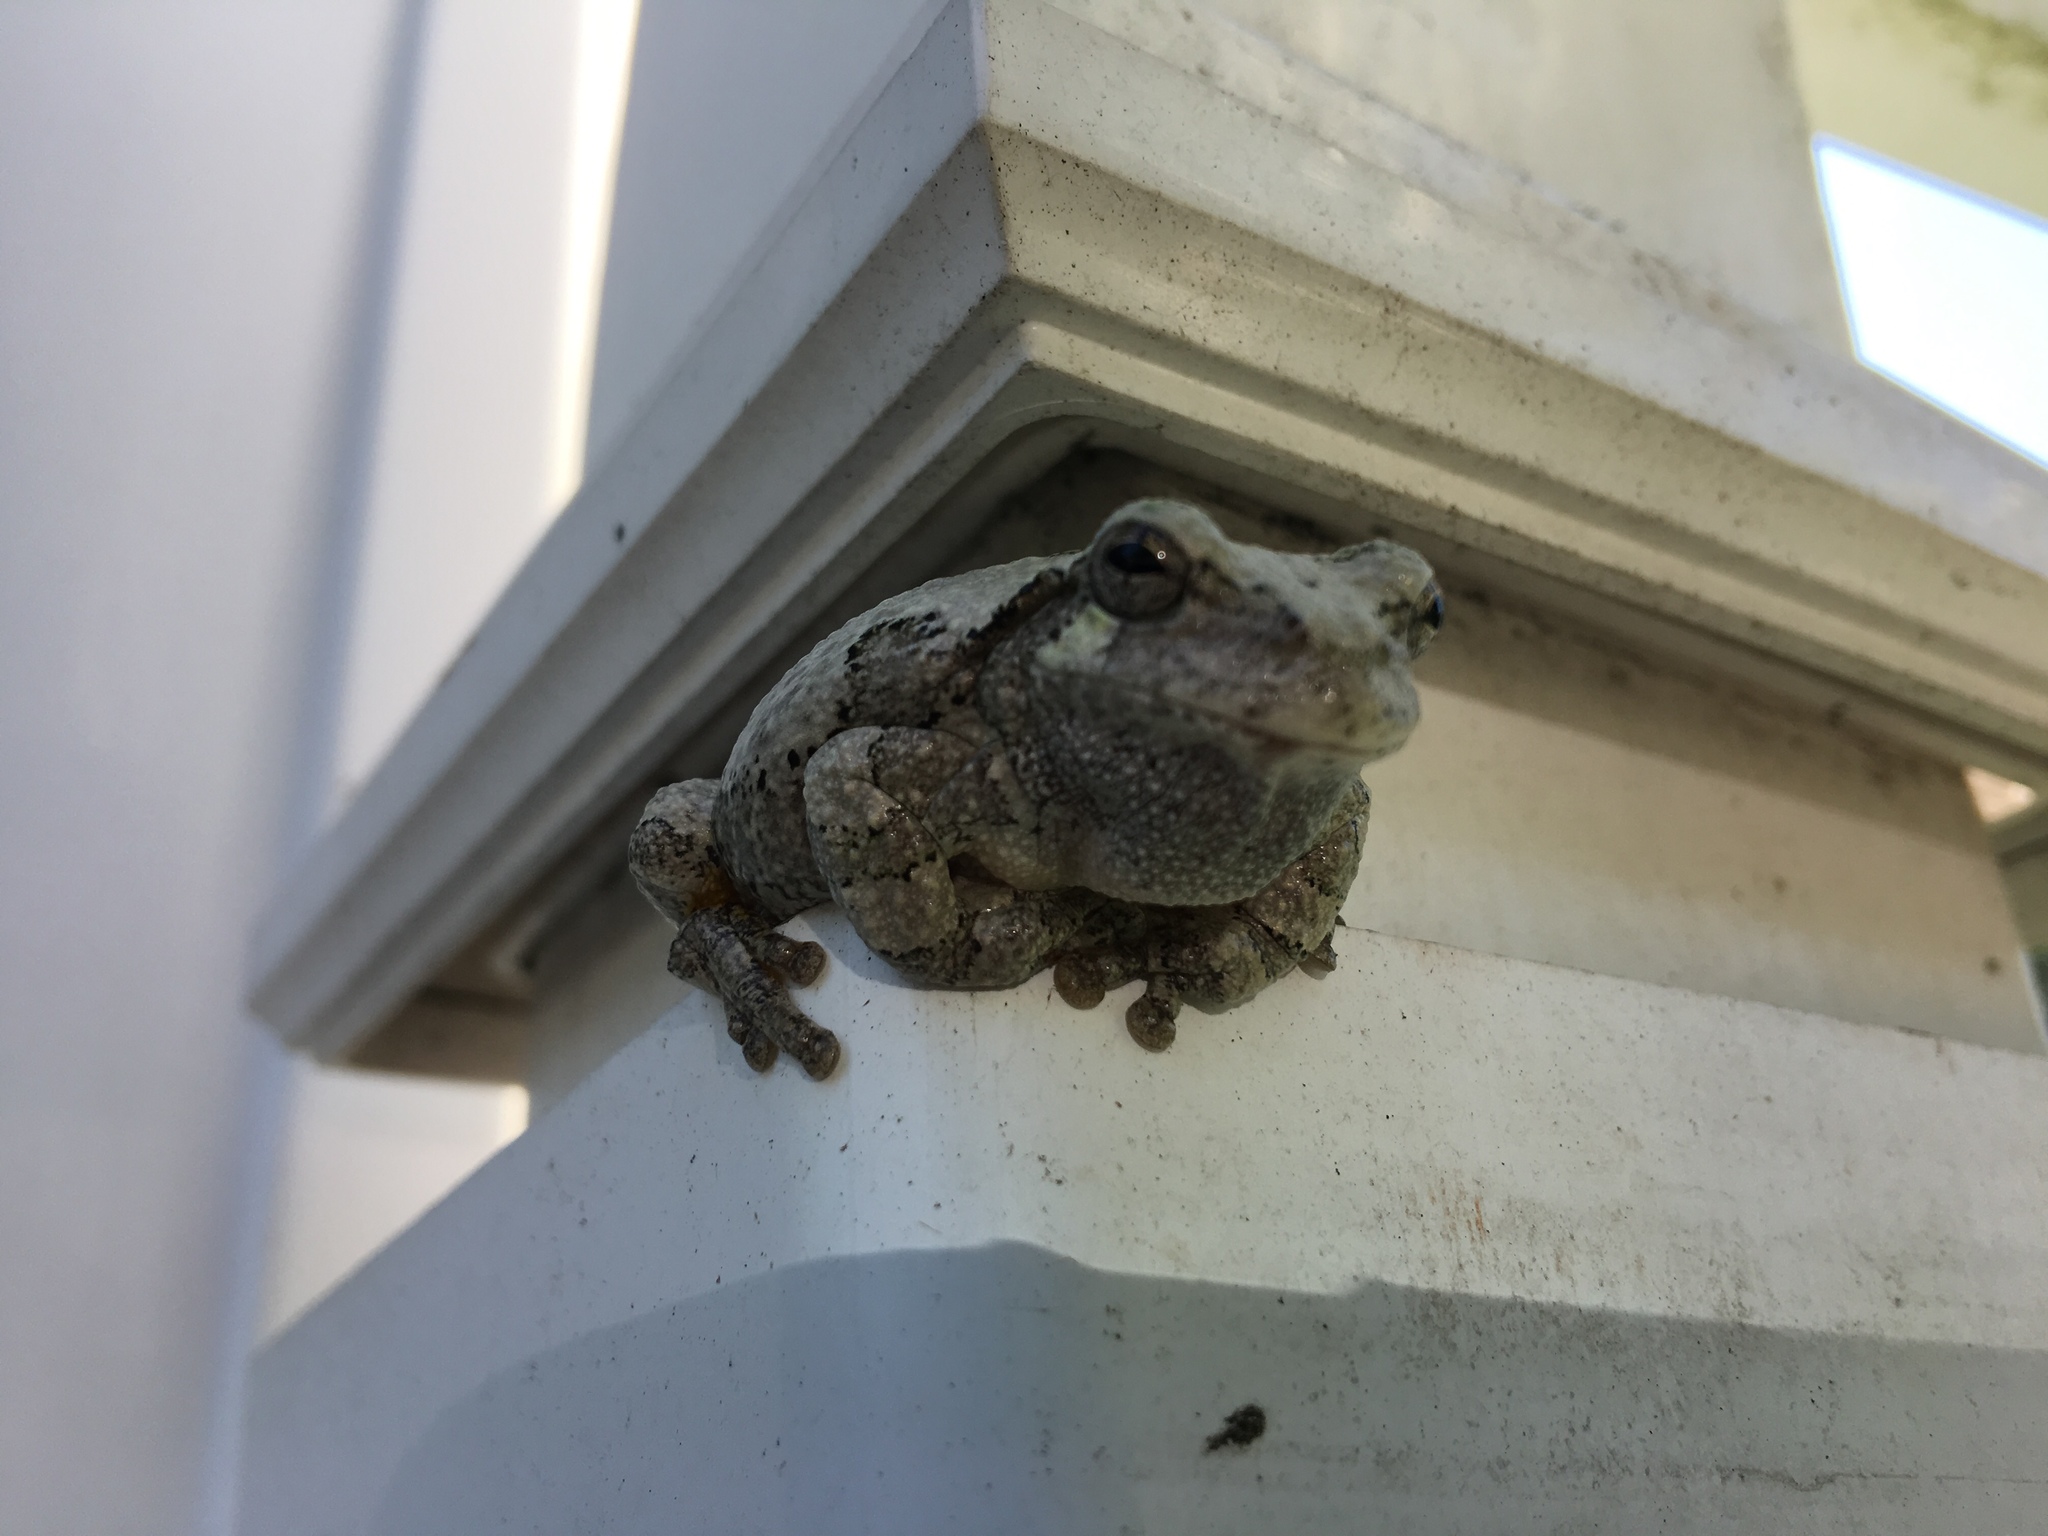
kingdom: Animalia
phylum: Chordata
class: Amphibia
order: Anura
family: Hylidae
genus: Dryophytes
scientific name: Dryophytes versicolor
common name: Gray treefrog
